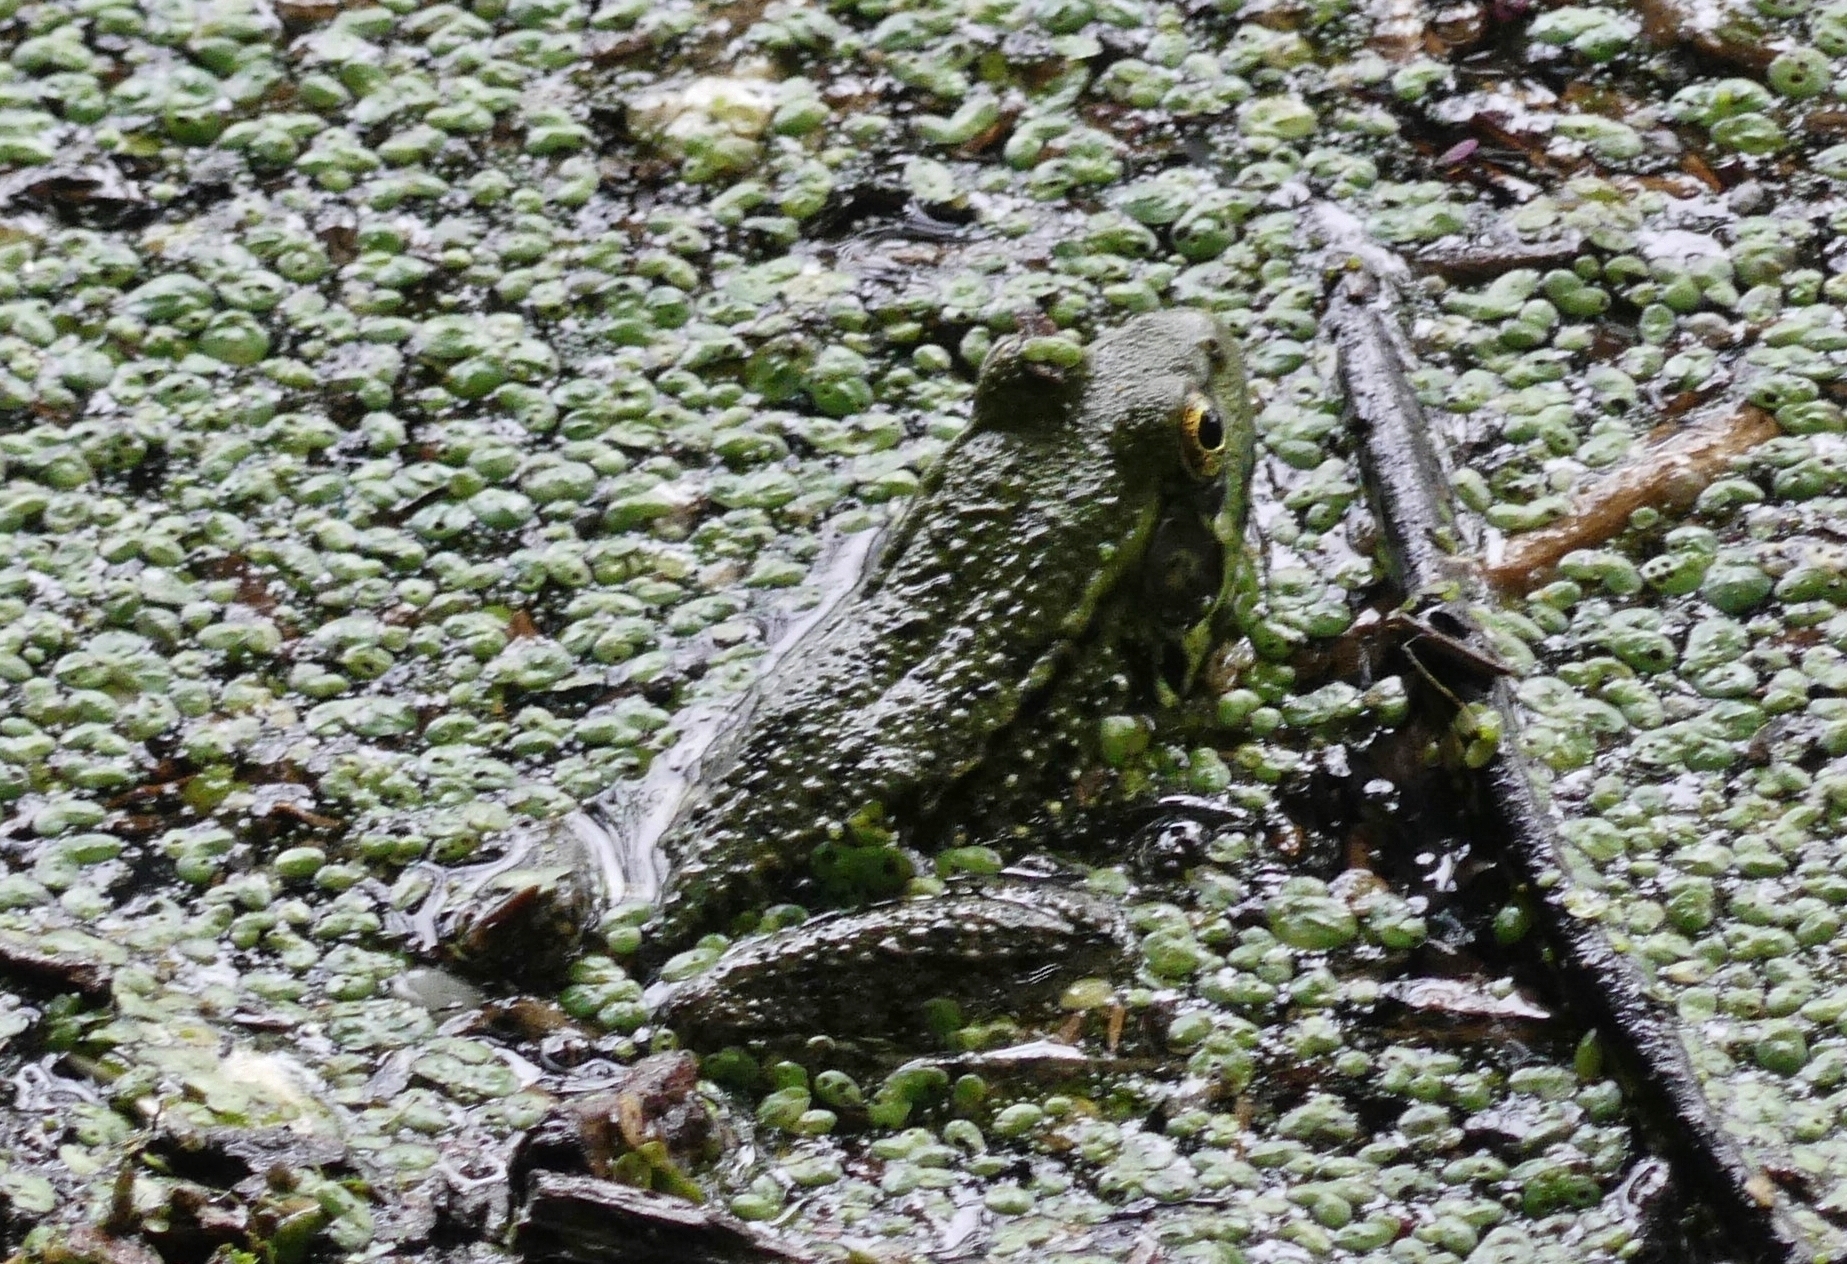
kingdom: Animalia
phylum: Chordata
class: Amphibia
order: Anura
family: Ranidae
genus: Lithobates
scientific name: Lithobates clamitans
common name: Green frog
